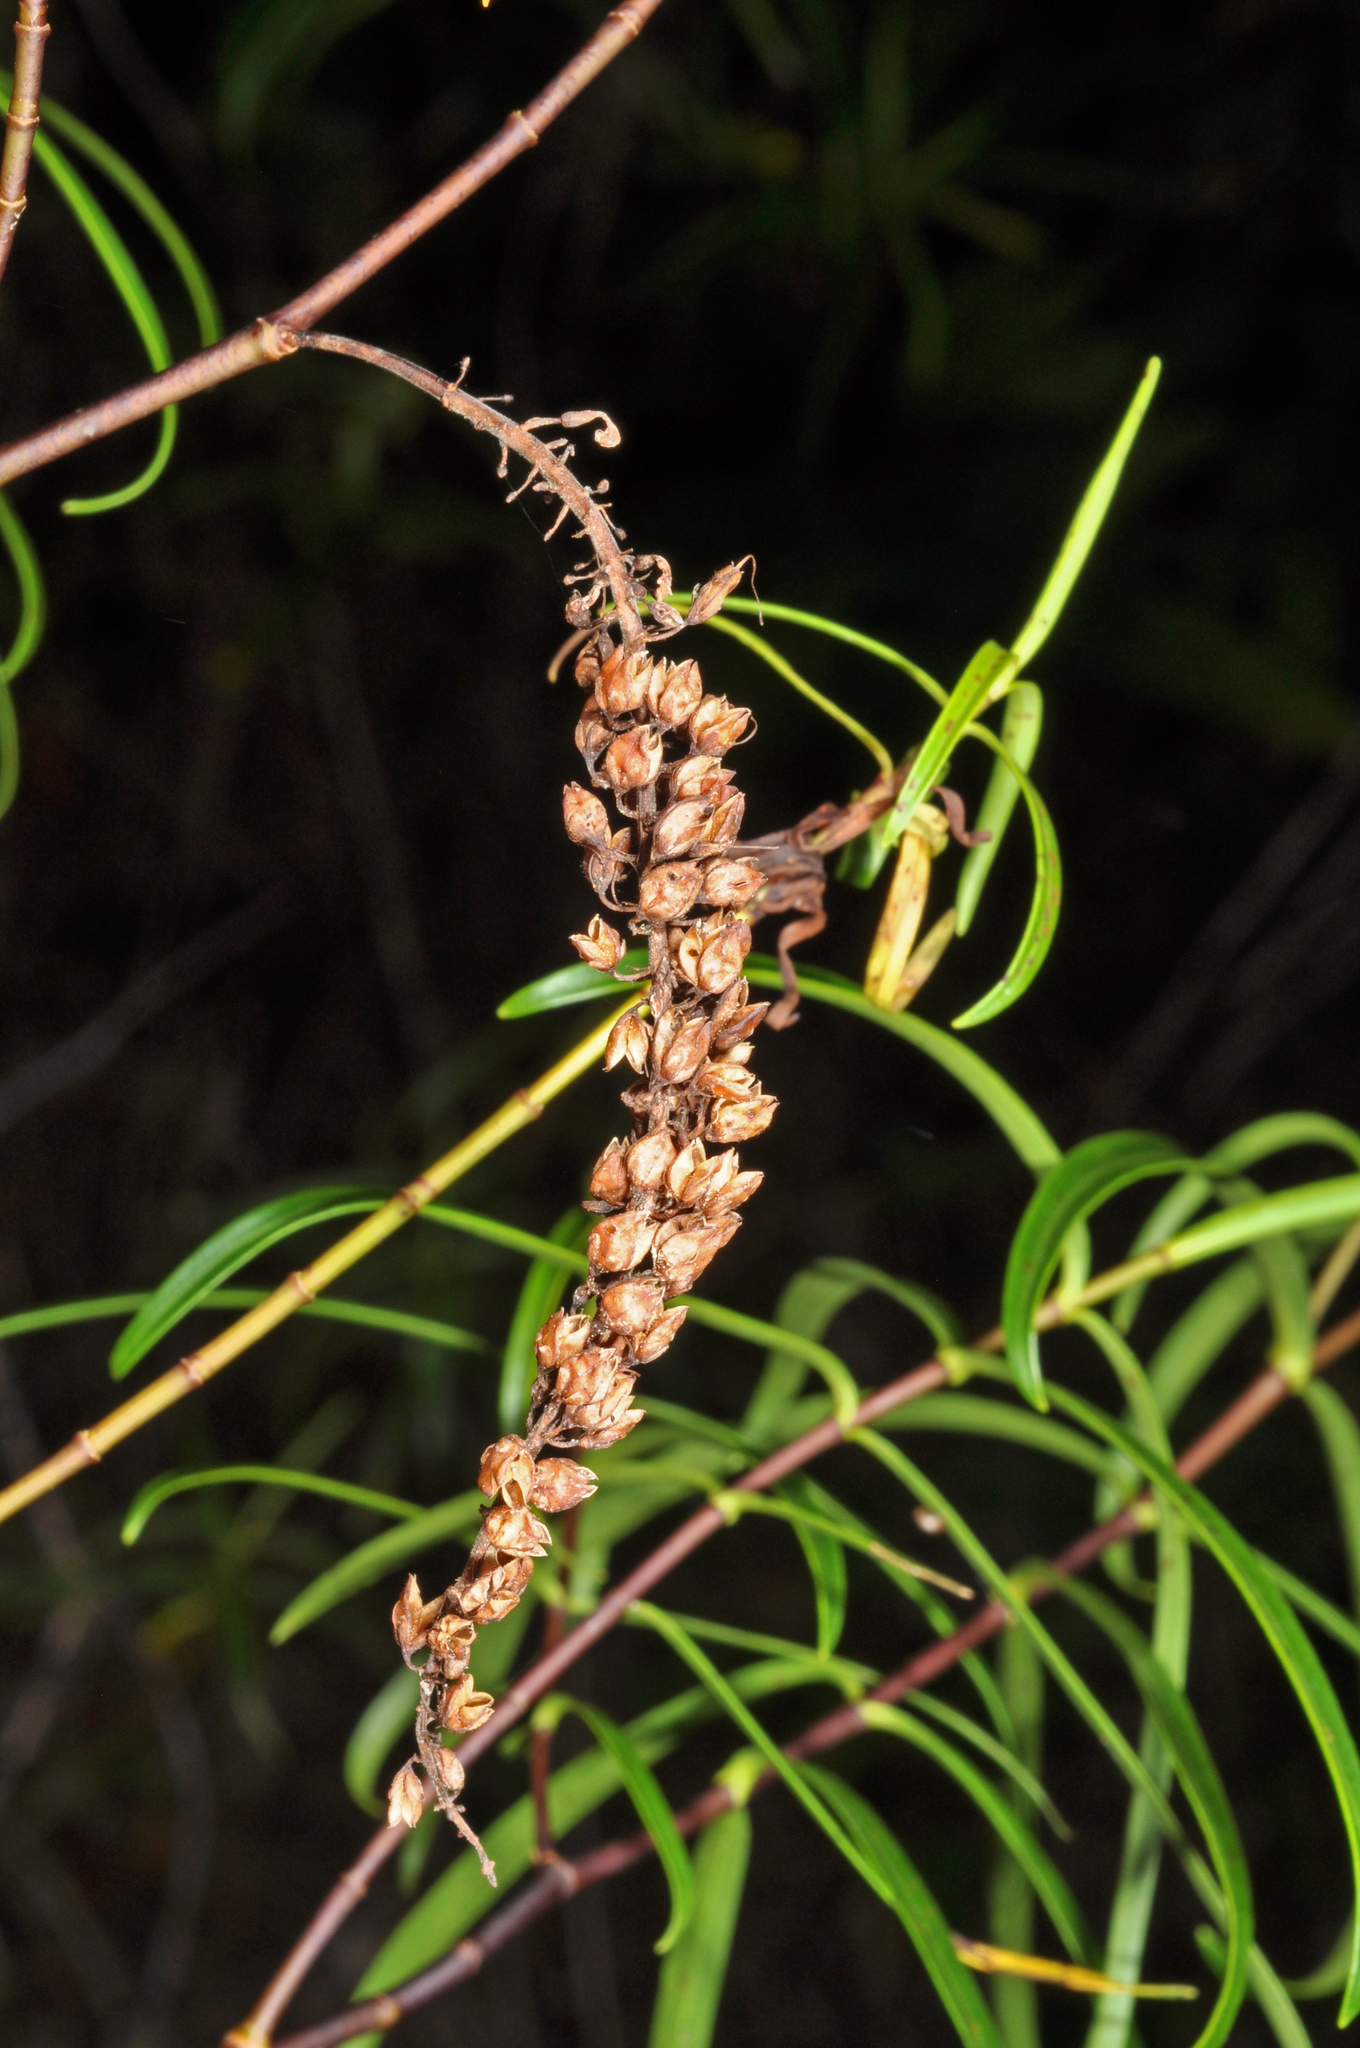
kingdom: Plantae
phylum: Tracheophyta
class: Magnoliopsida
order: Lamiales
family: Plantaginaceae
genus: Veronica
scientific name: Veronica stenophylla
